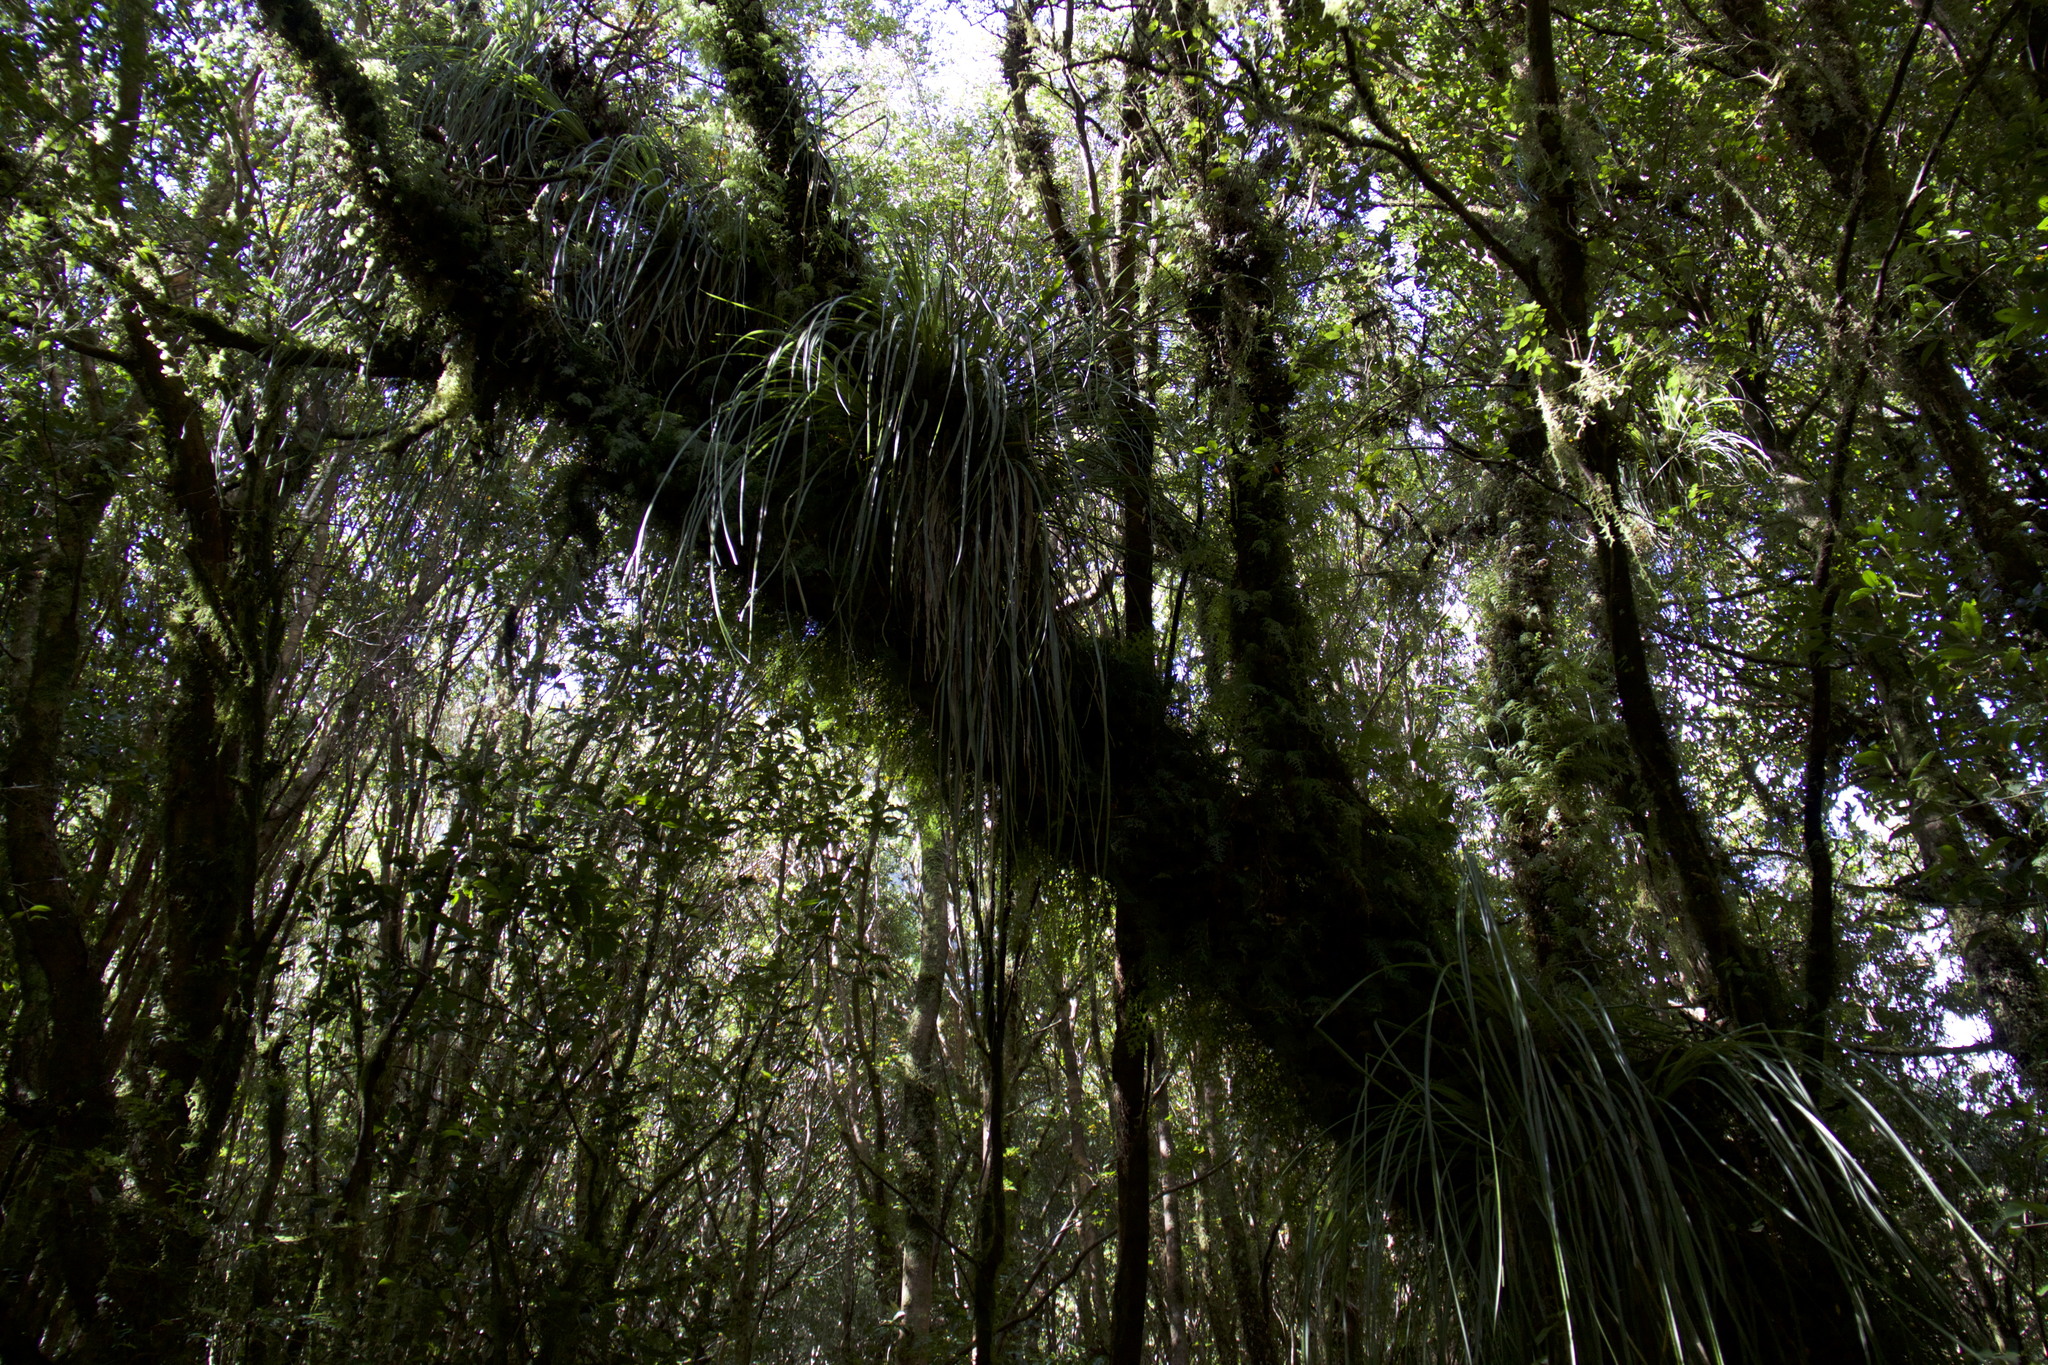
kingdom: Plantae
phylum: Tracheophyta
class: Liliopsida
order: Poales
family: Bromeliaceae
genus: Fascicularia
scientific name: Fascicularia bicolor
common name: Rhodostachys
